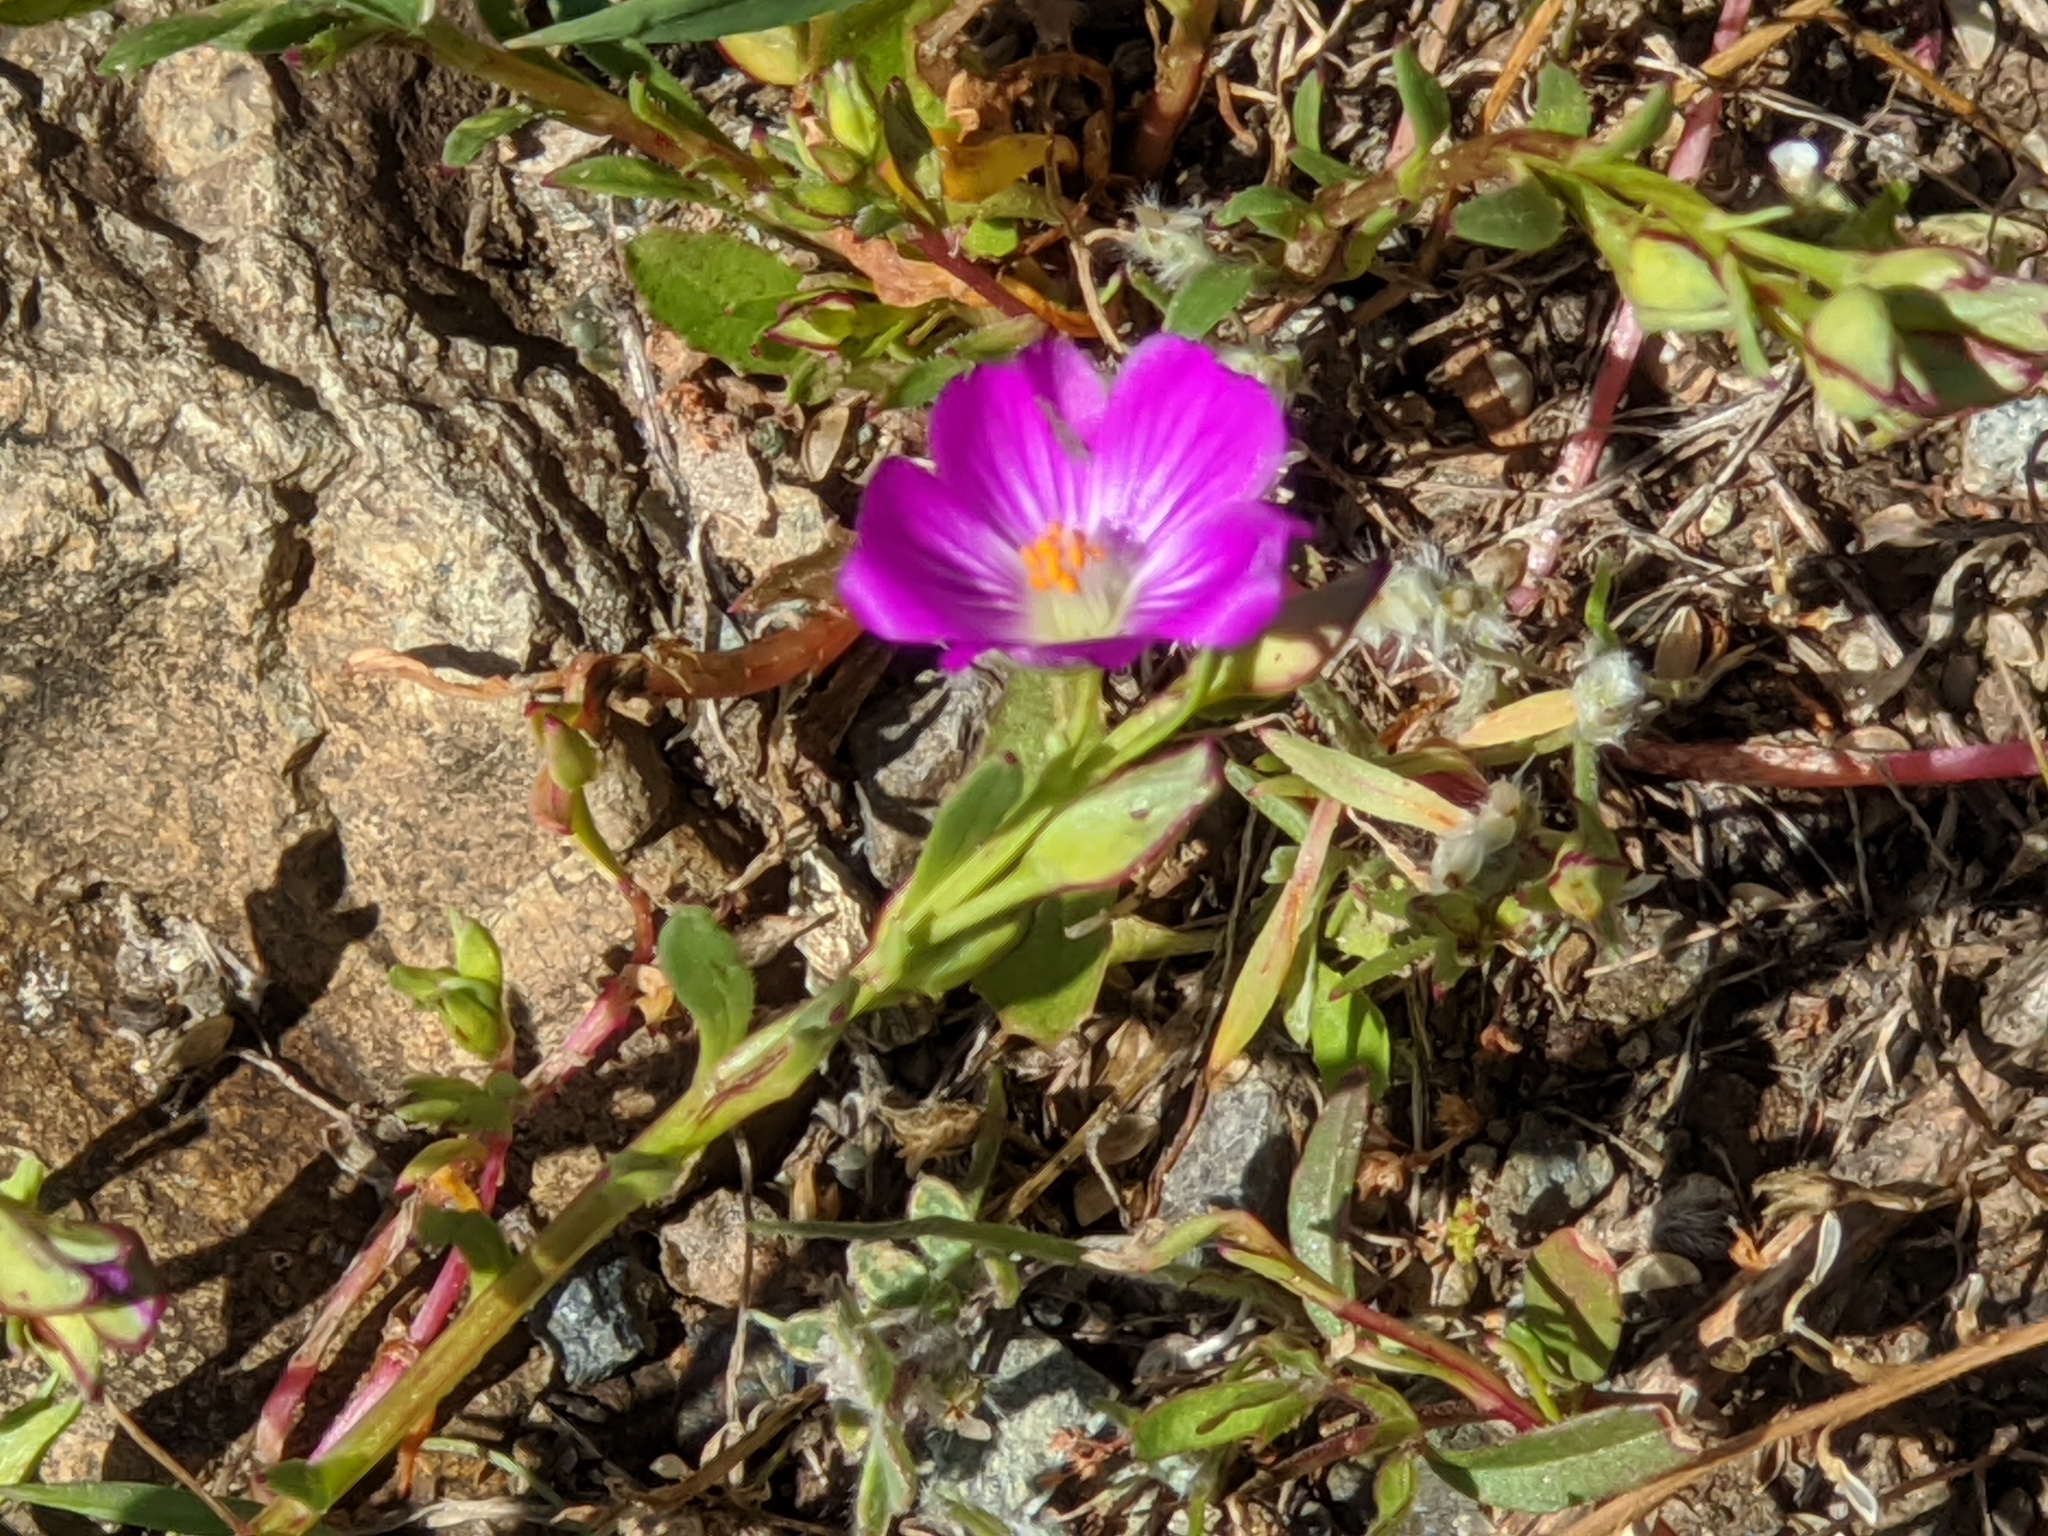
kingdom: Plantae
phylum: Tracheophyta
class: Magnoliopsida
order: Caryophyllales
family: Montiaceae
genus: Calandrinia
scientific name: Calandrinia menziesii
